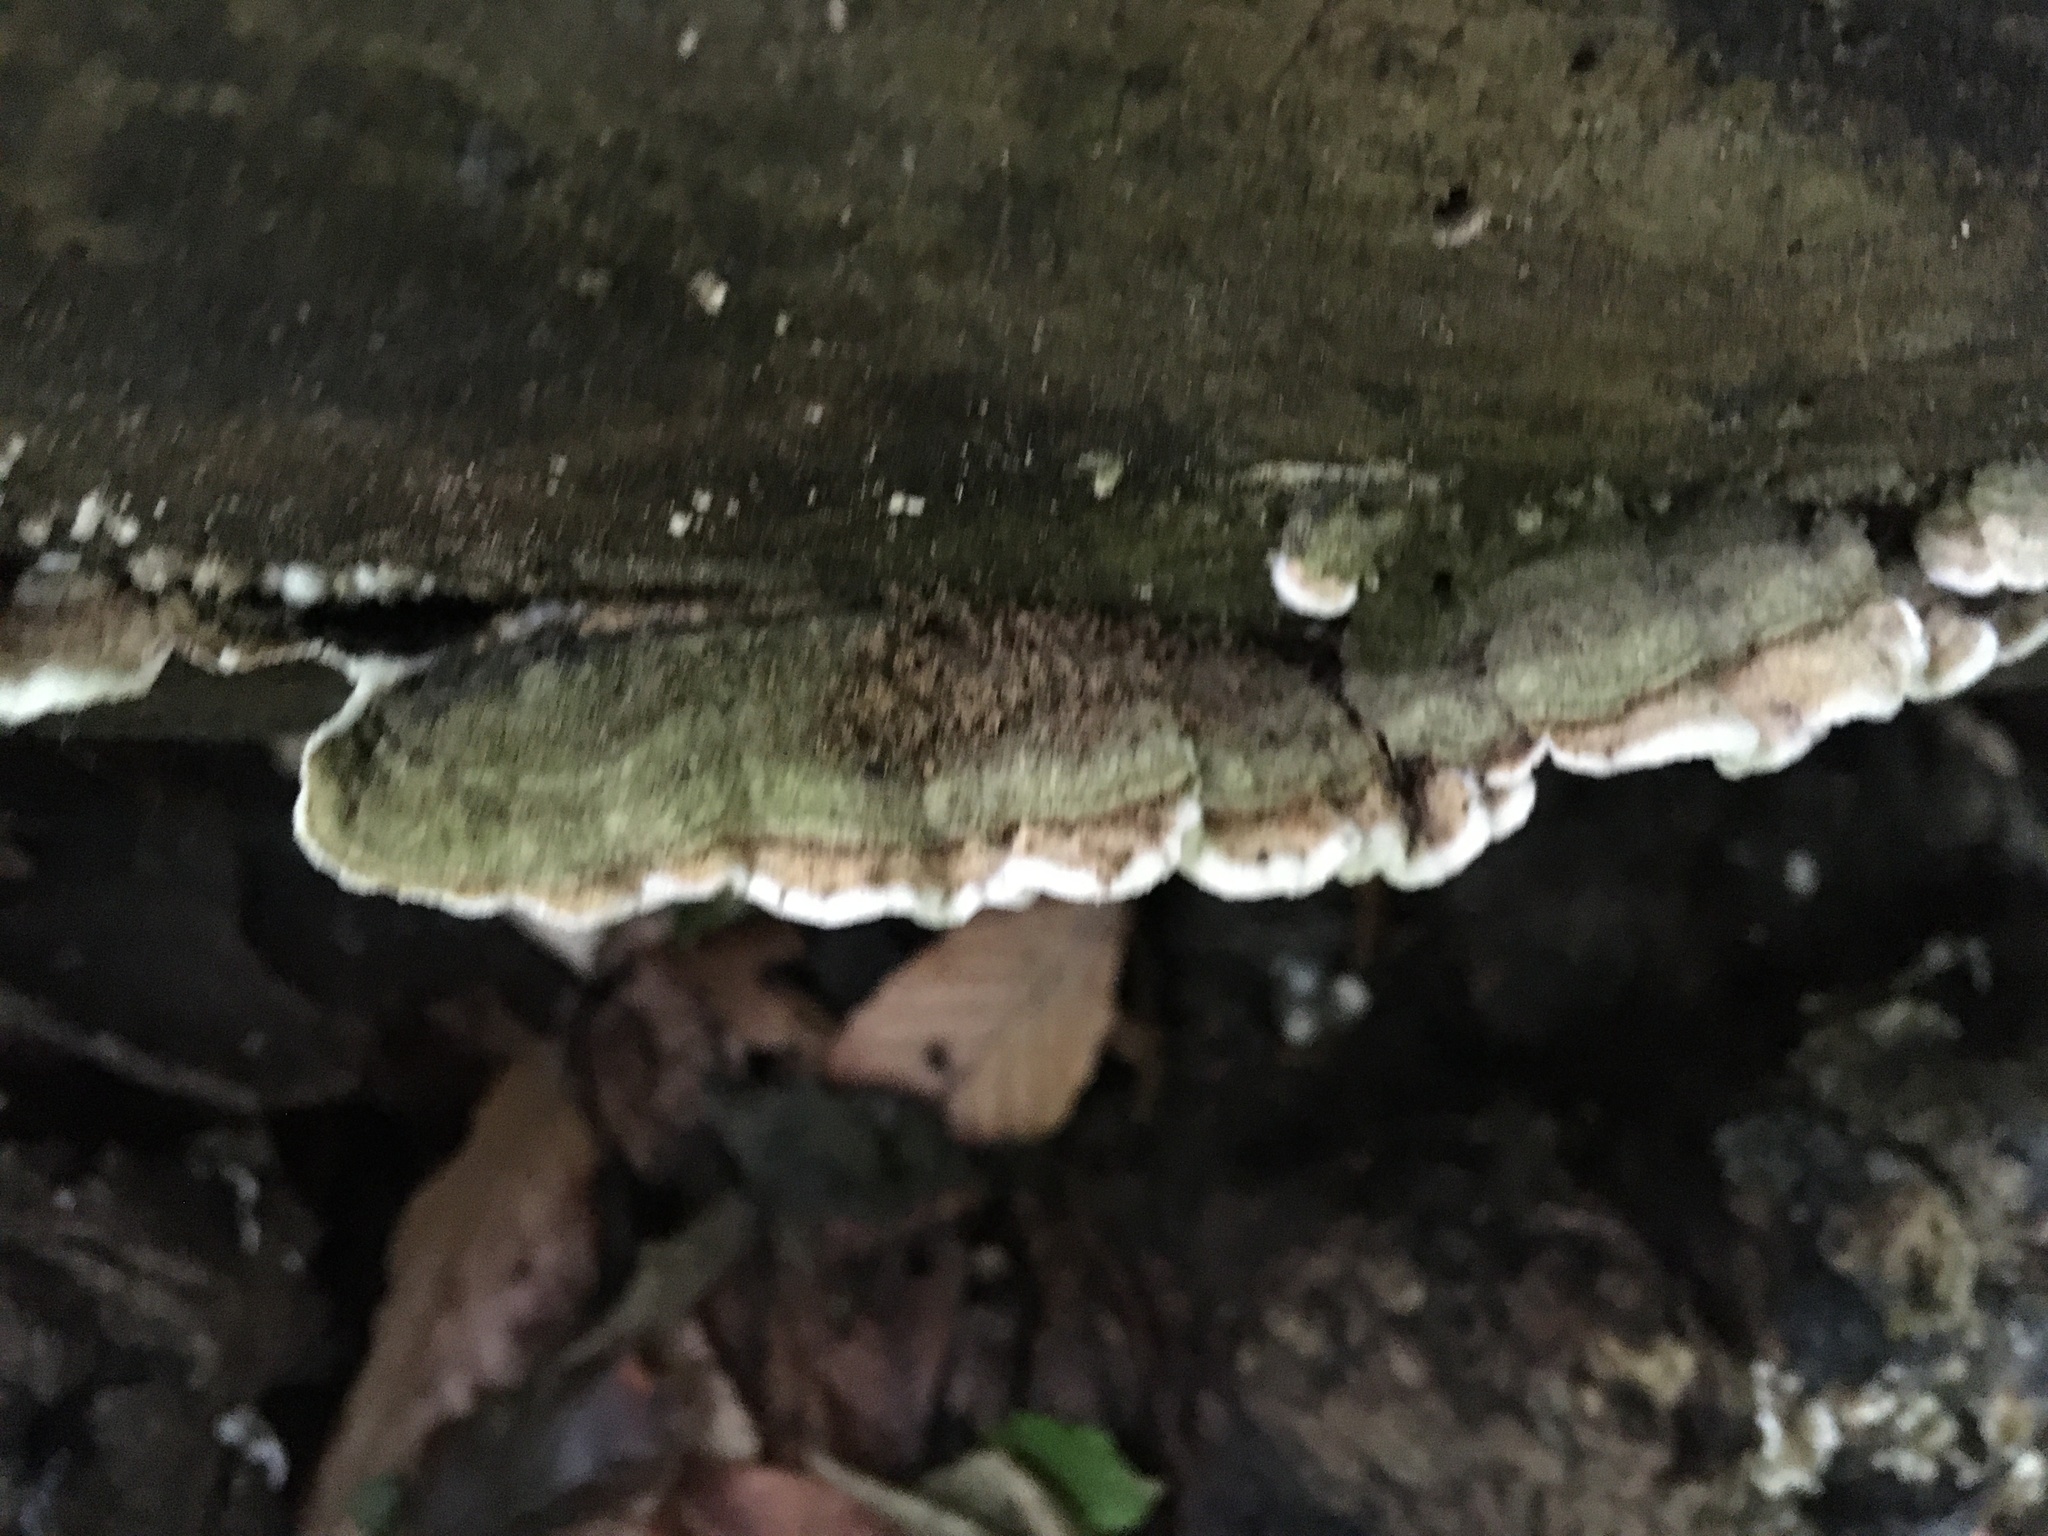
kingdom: Fungi
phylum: Basidiomycota
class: Agaricomycetes
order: Polyporales
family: Phanerochaetaceae
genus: Bjerkandera
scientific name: Bjerkandera adusta
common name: Smoky bracket
